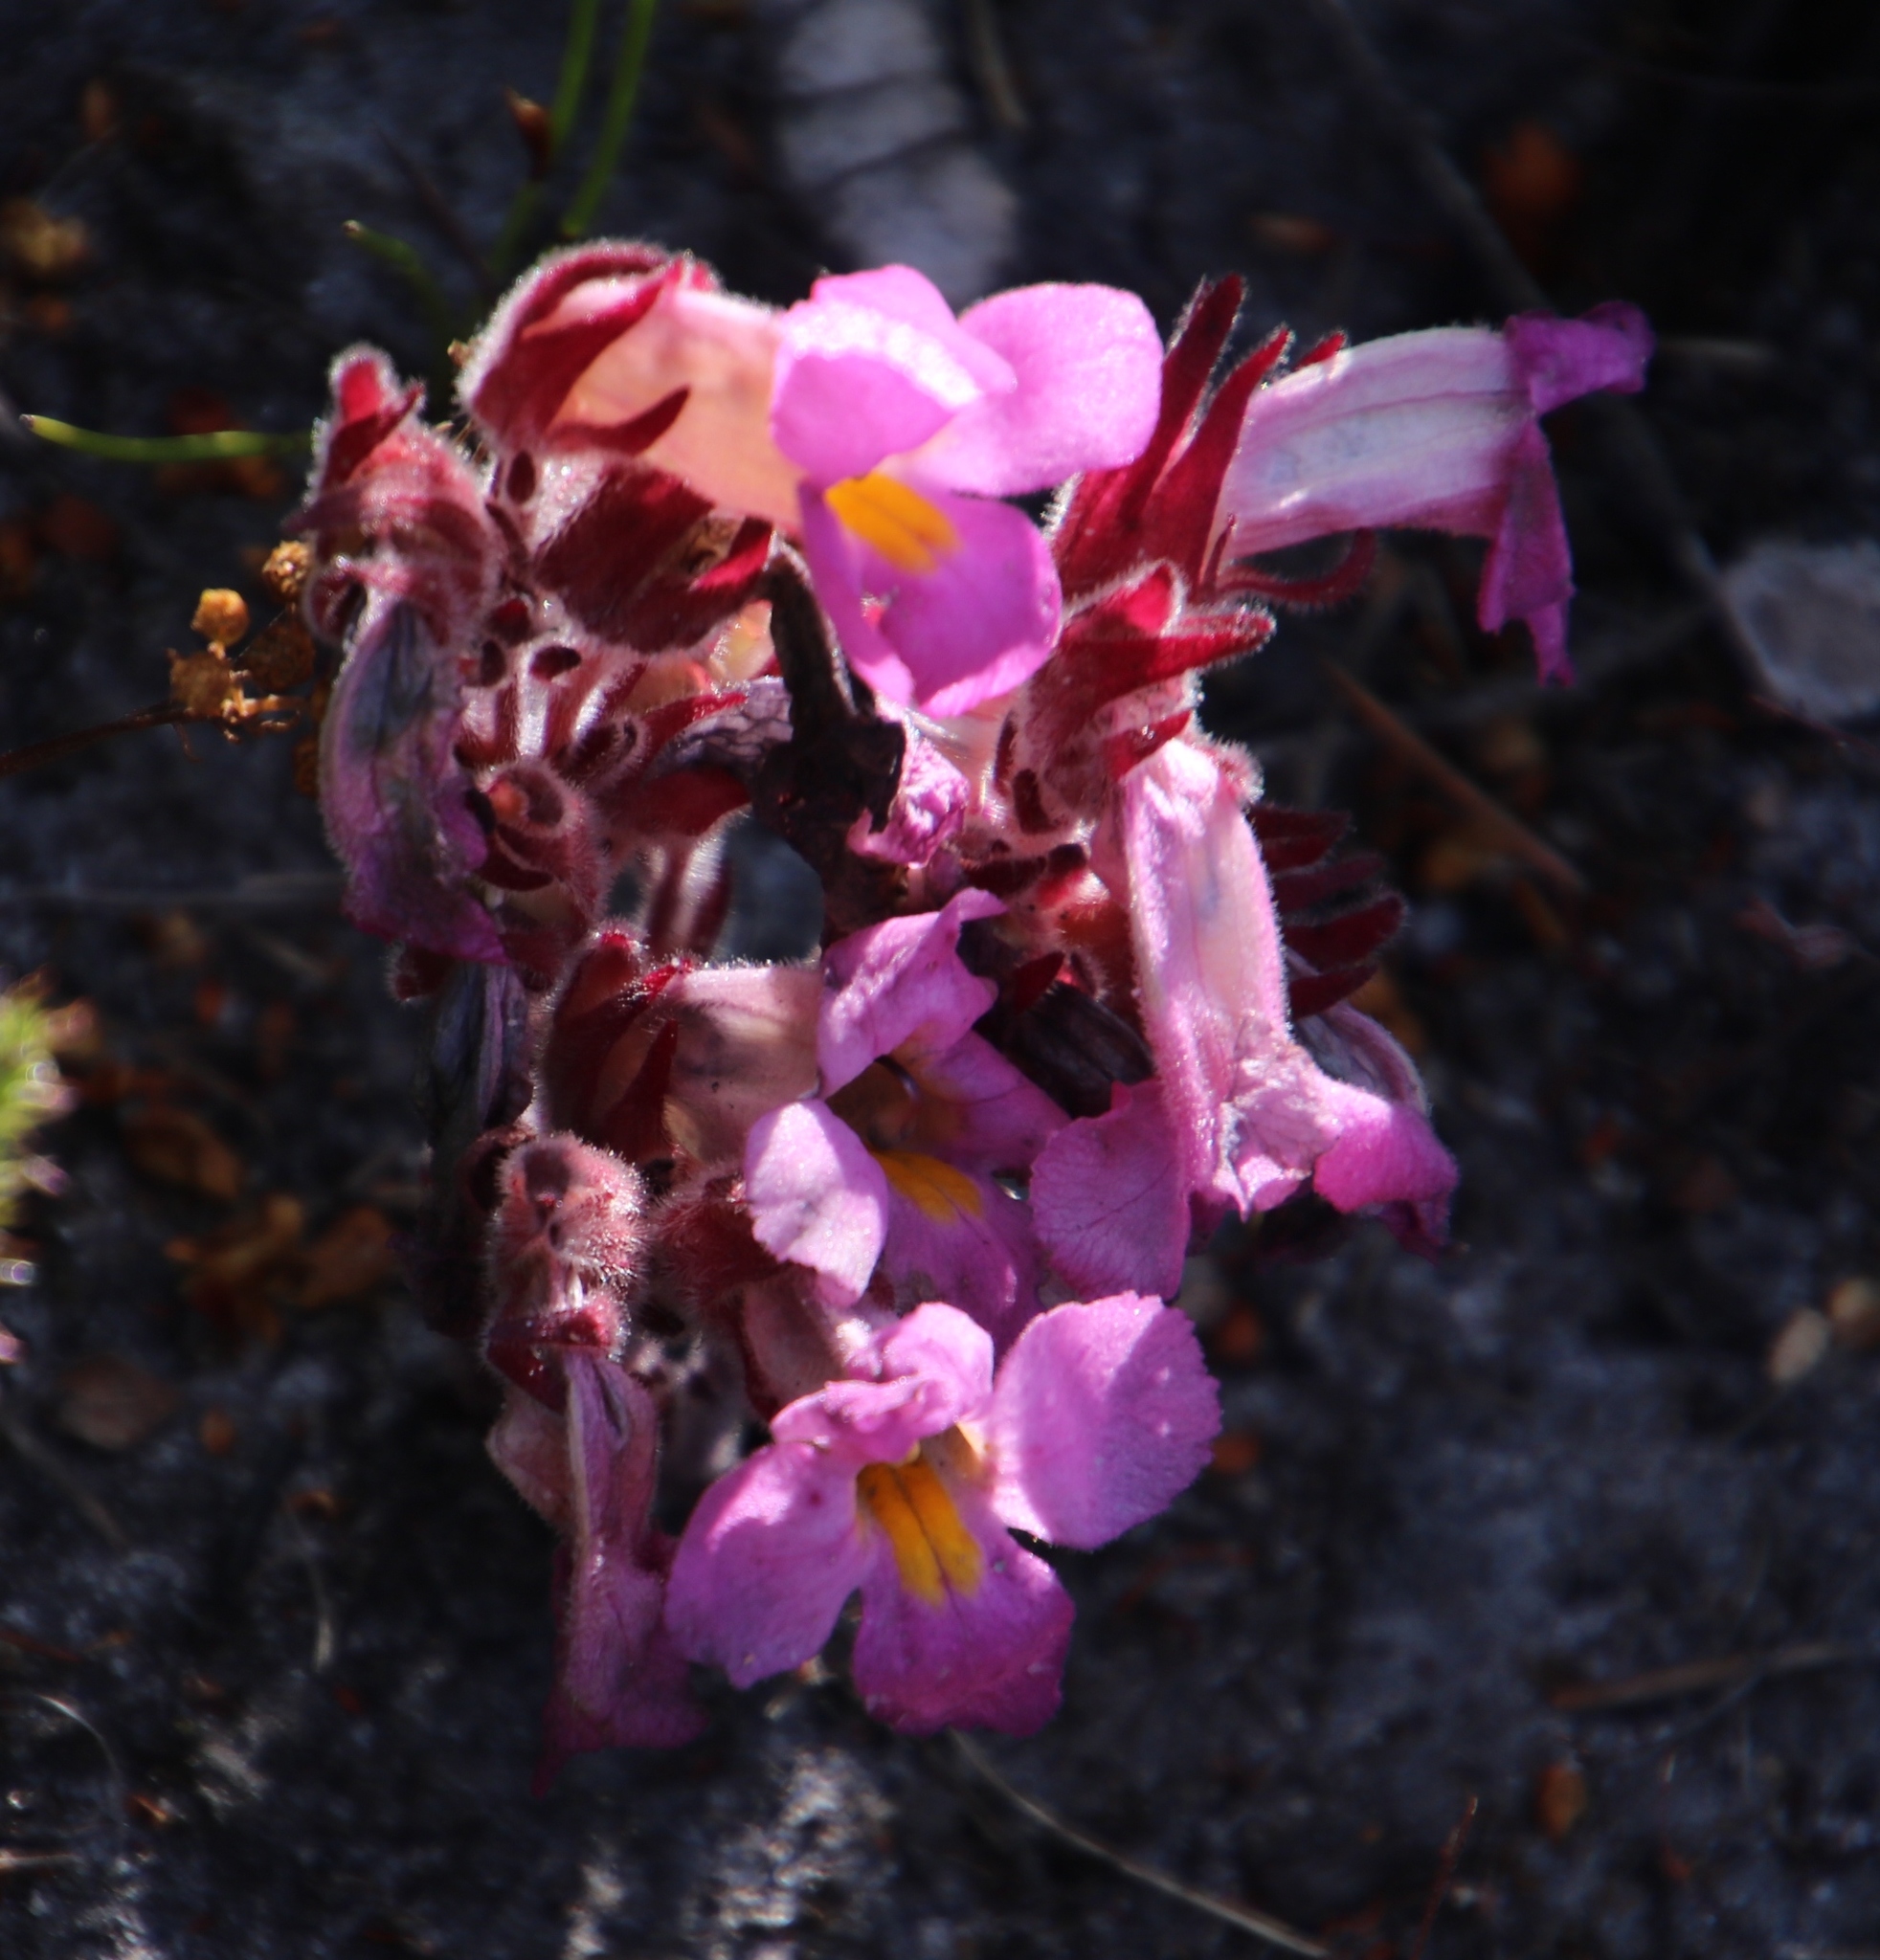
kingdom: Plantae
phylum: Tracheophyta
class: Magnoliopsida
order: Lamiales
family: Orobanchaceae
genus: Harveya
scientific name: Harveya purpurea
